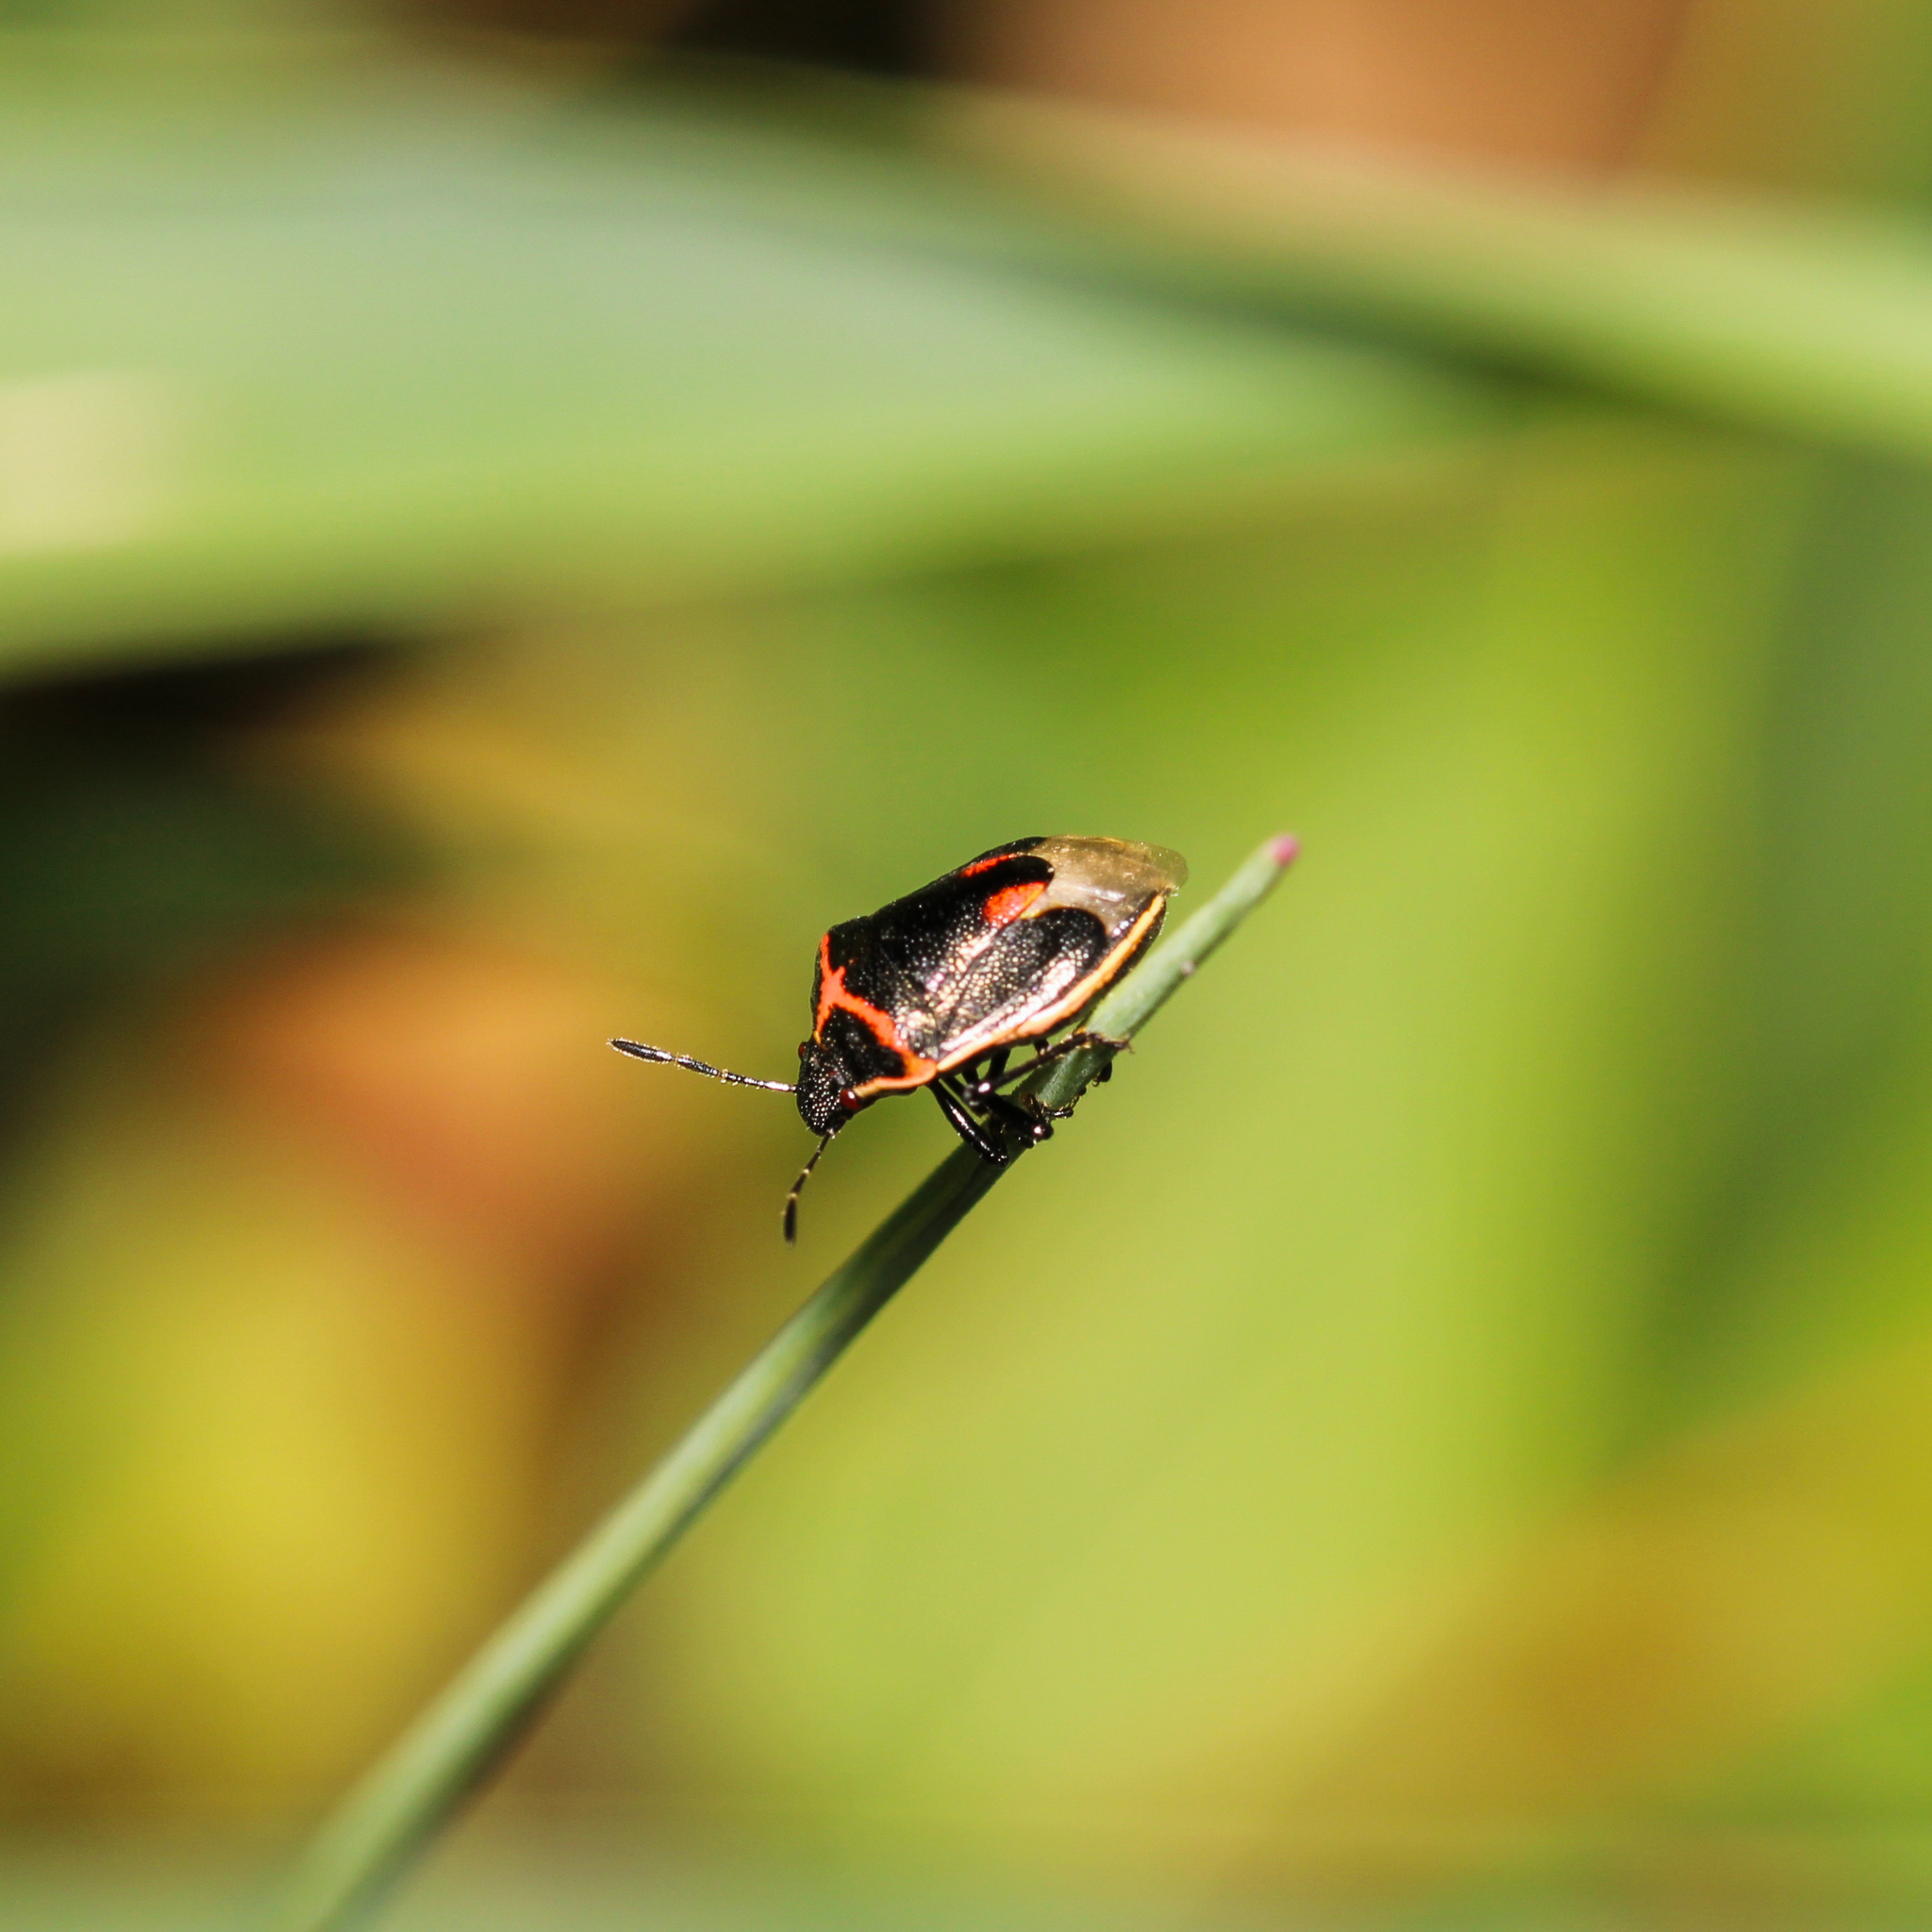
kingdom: Animalia
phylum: Arthropoda
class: Insecta
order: Hemiptera
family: Pentatomidae
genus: Cosmopepla
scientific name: Cosmopepla lintneriana
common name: Twice-stabbed stink bug
